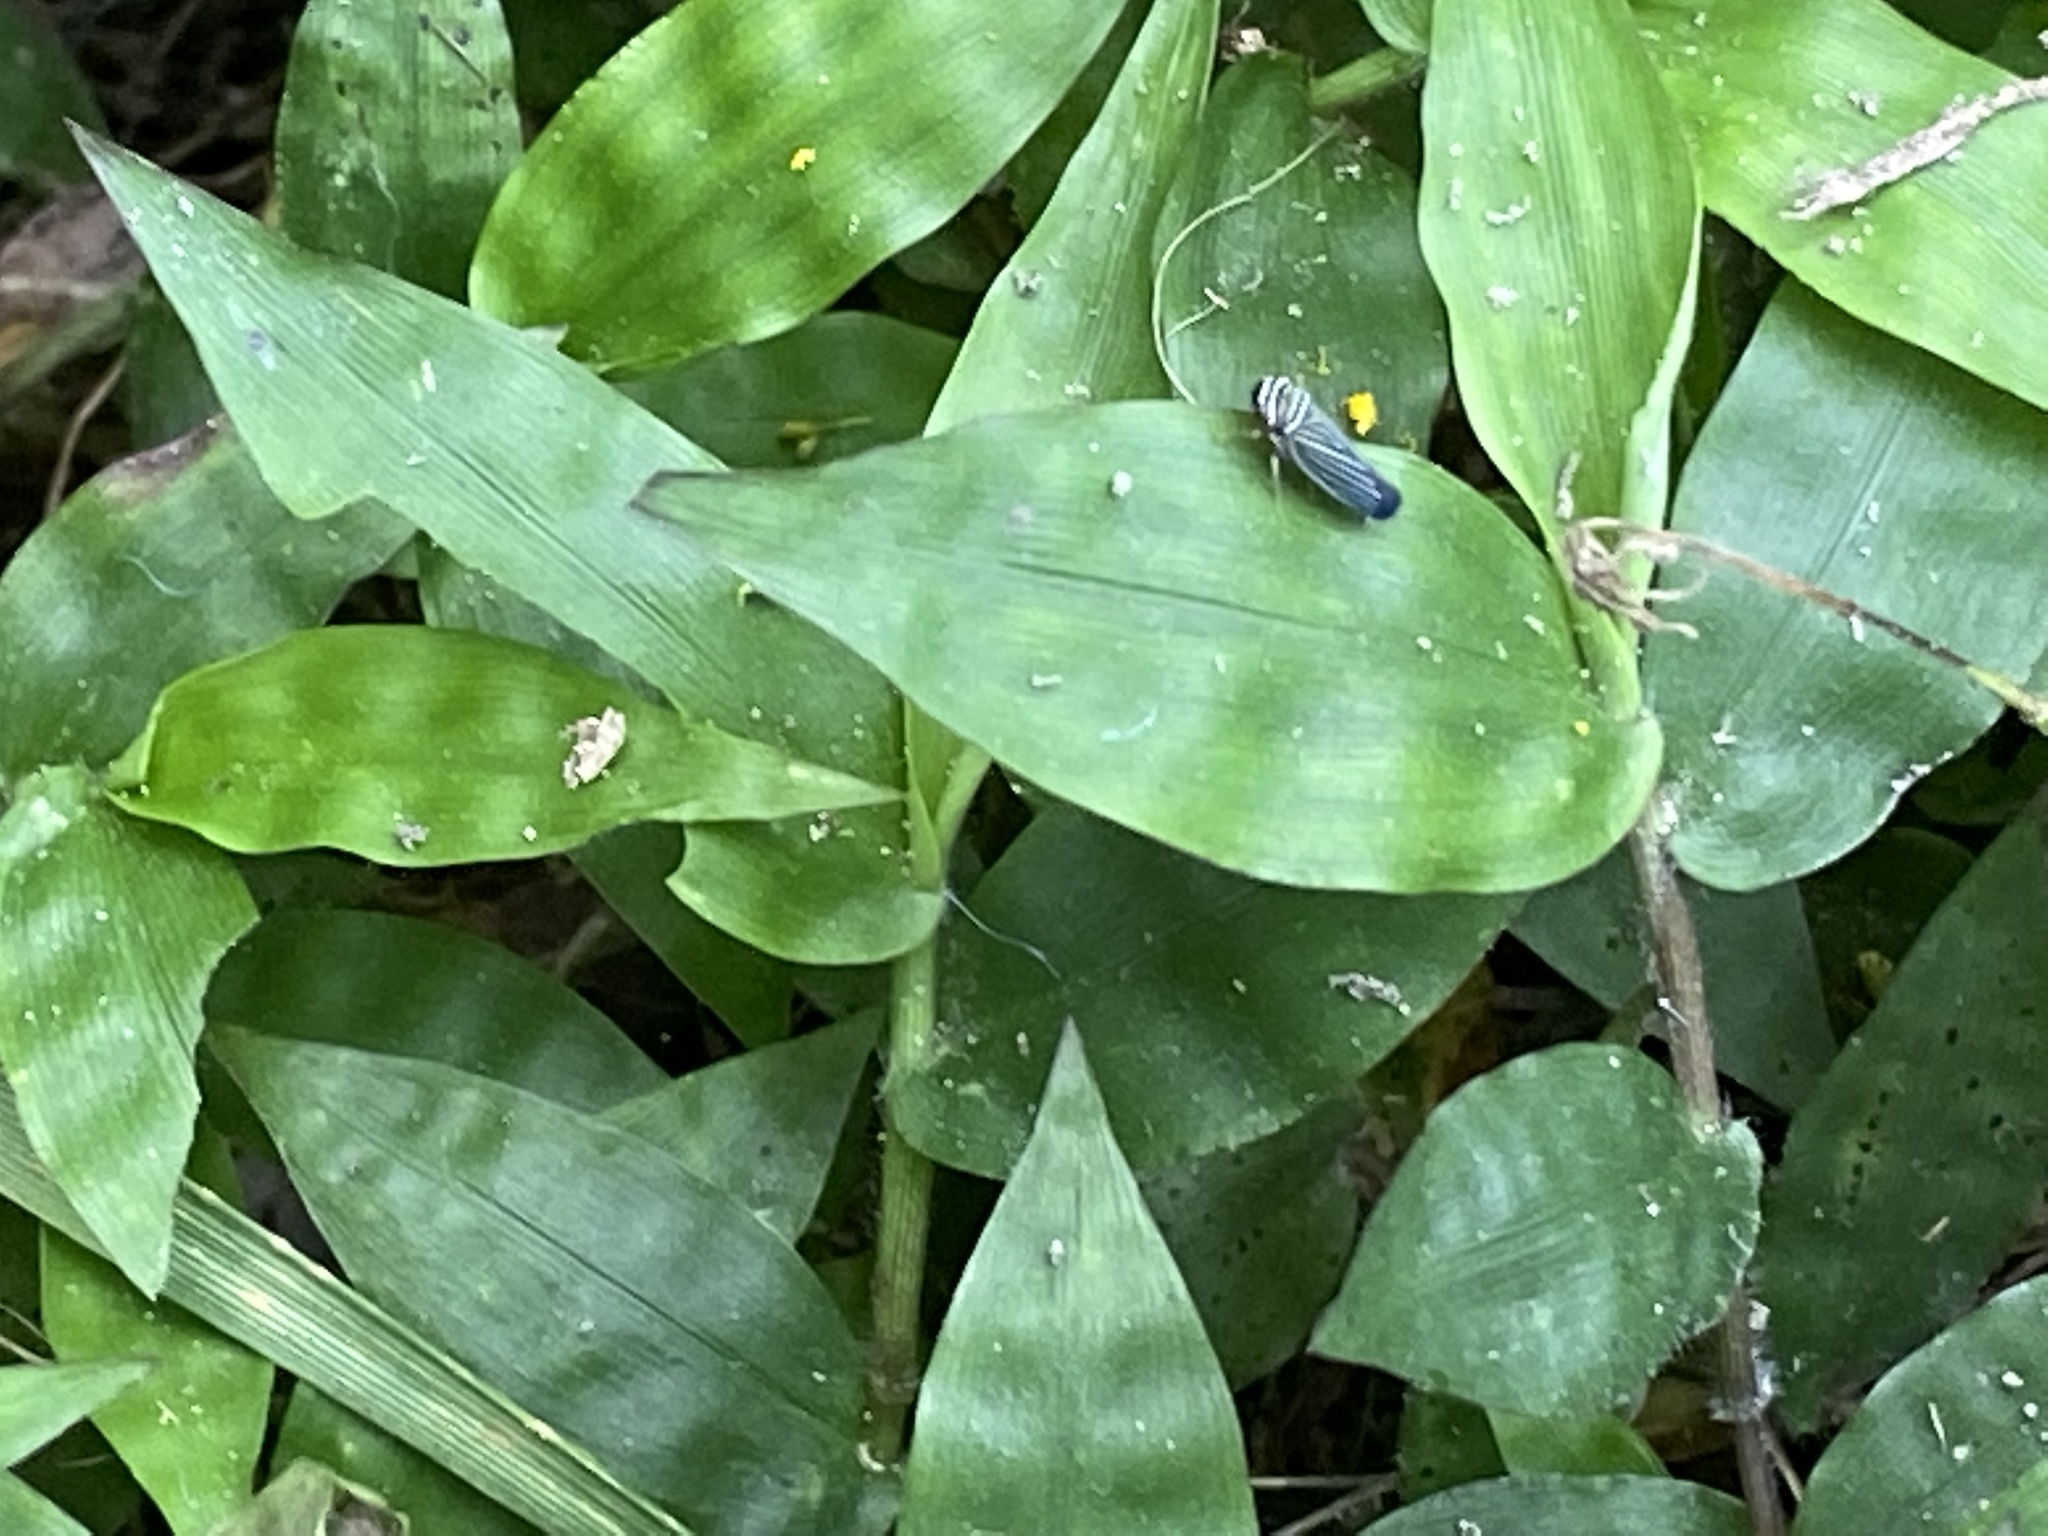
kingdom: Animalia
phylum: Arthropoda
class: Insecta
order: Hemiptera
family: Cicadellidae
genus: Tylozygus
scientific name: Tylozygus bifidus
